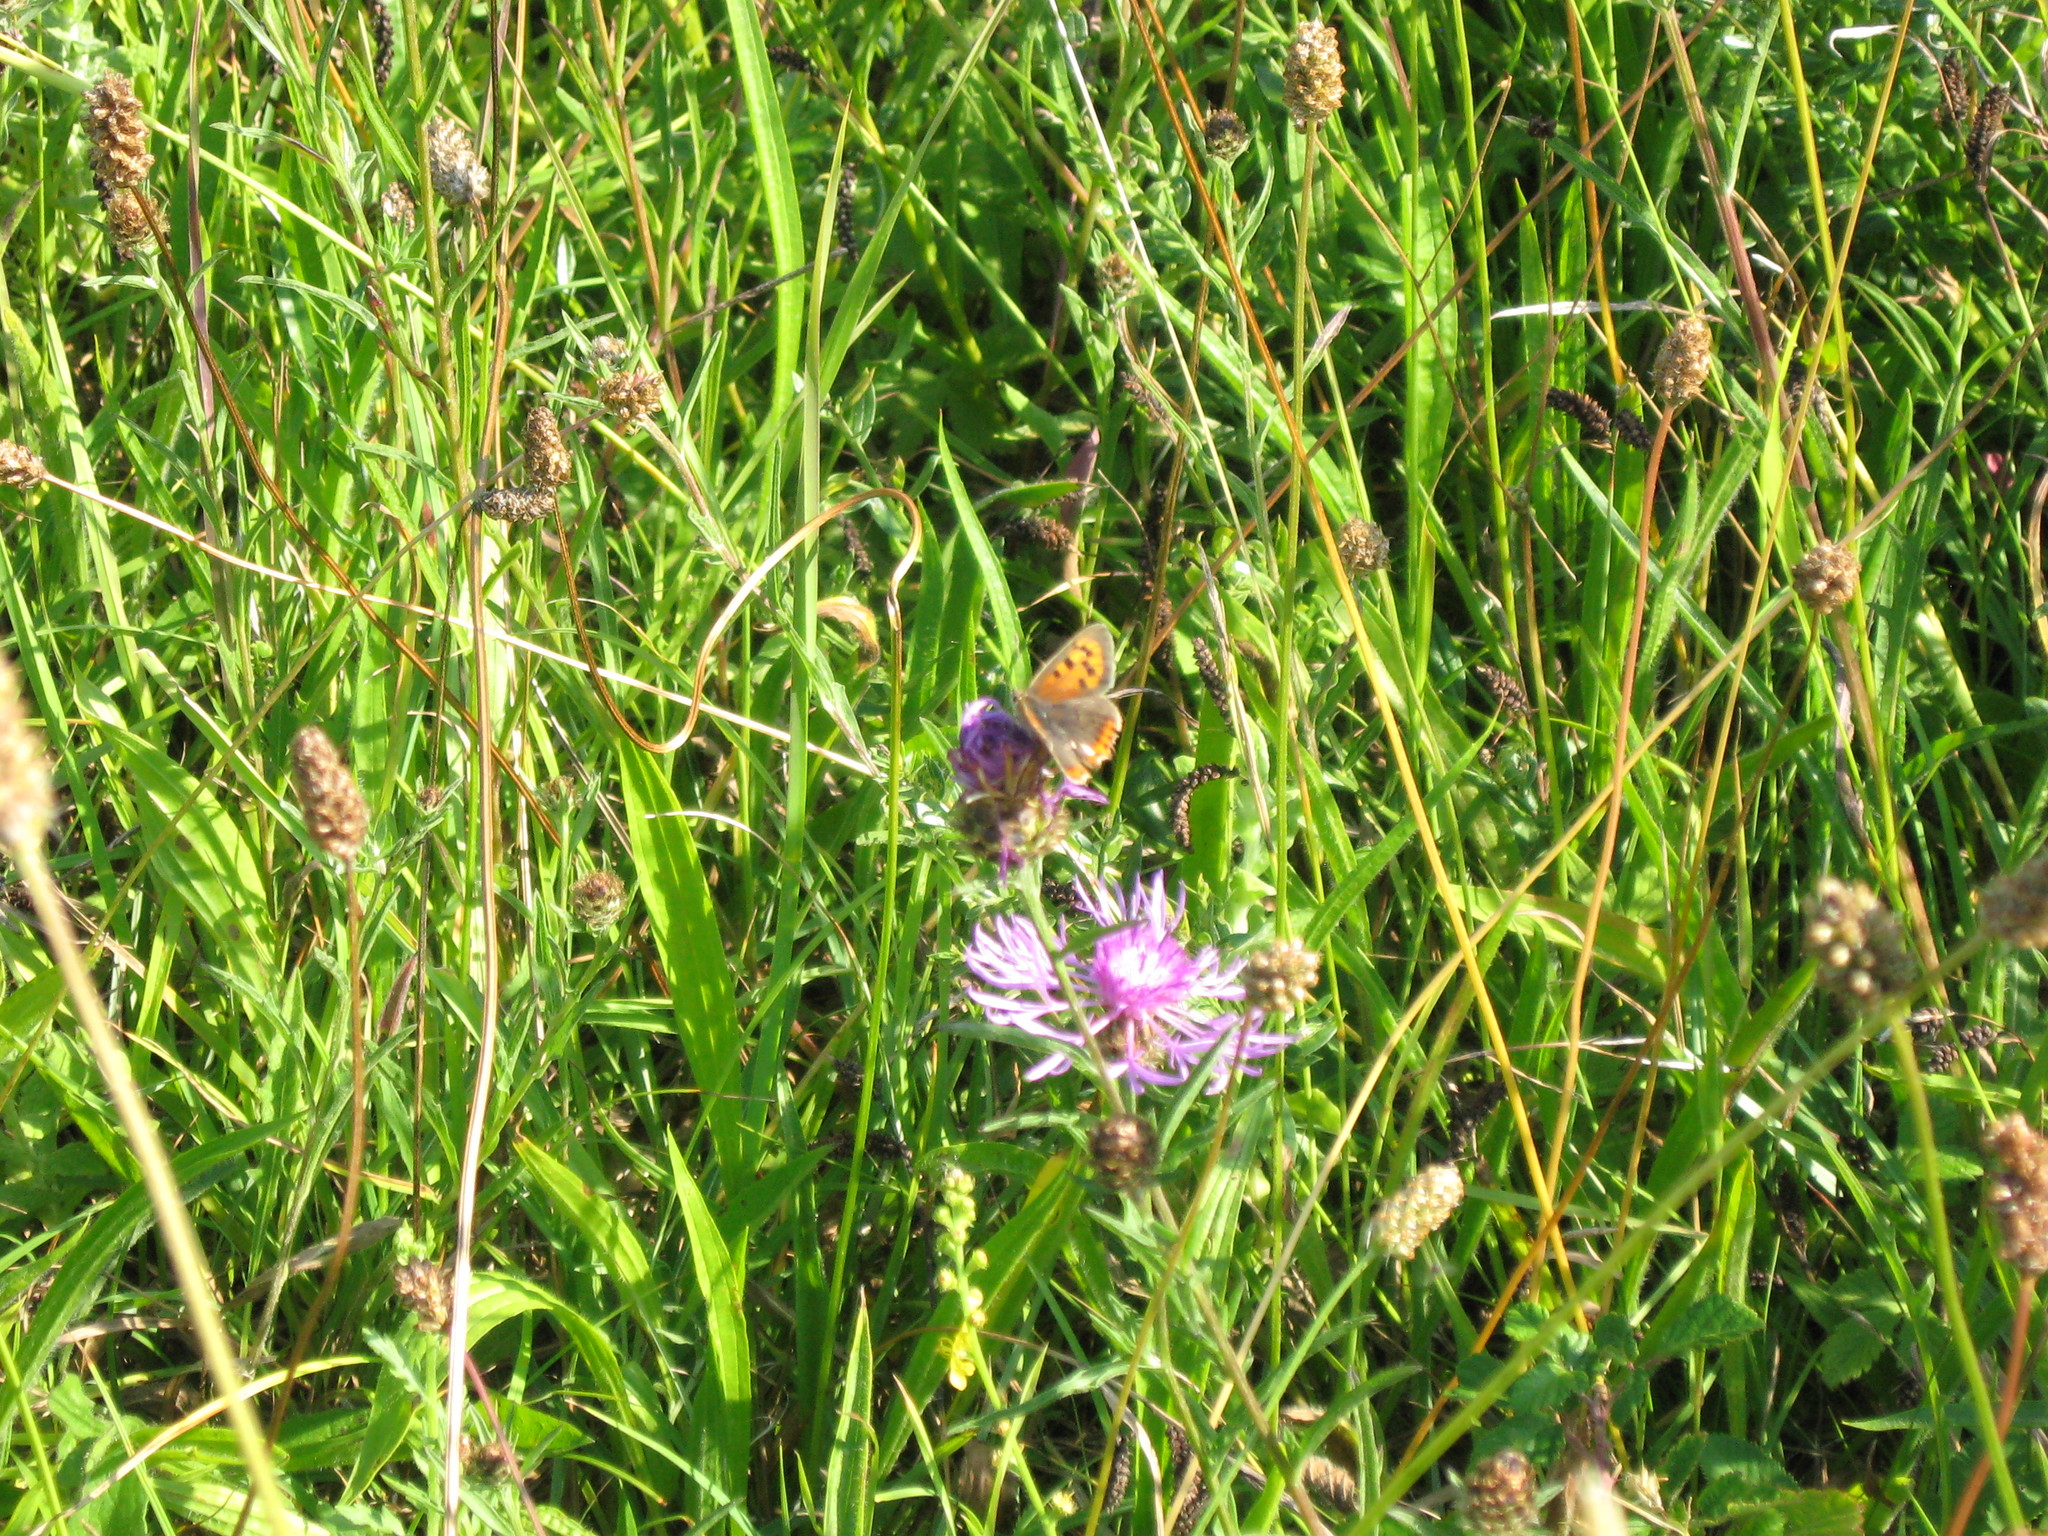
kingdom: Animalia
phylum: Arthropoda
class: Insecta
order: Lepidoptera
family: Lycaenidae
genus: Lycaena
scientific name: Lycaena phlaeas
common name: Small copper
